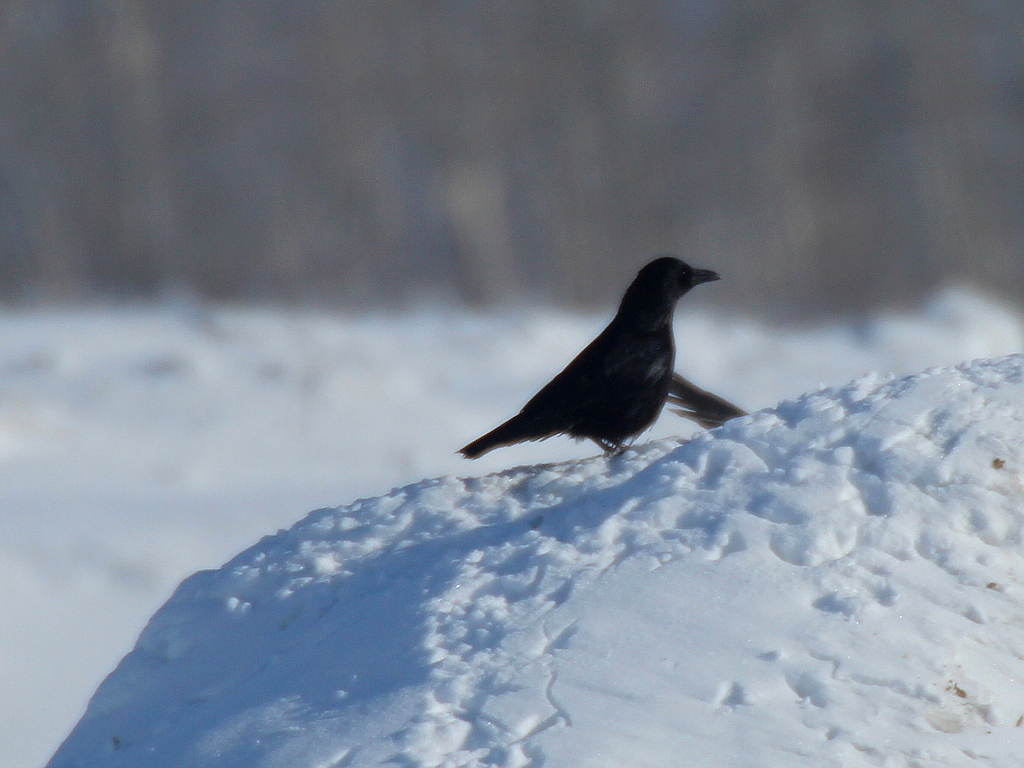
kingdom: Animalia
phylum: Chordata
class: Aves
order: Passeriformes
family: Corvidae
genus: Corvus
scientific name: Corvus corone
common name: Carrion crow
